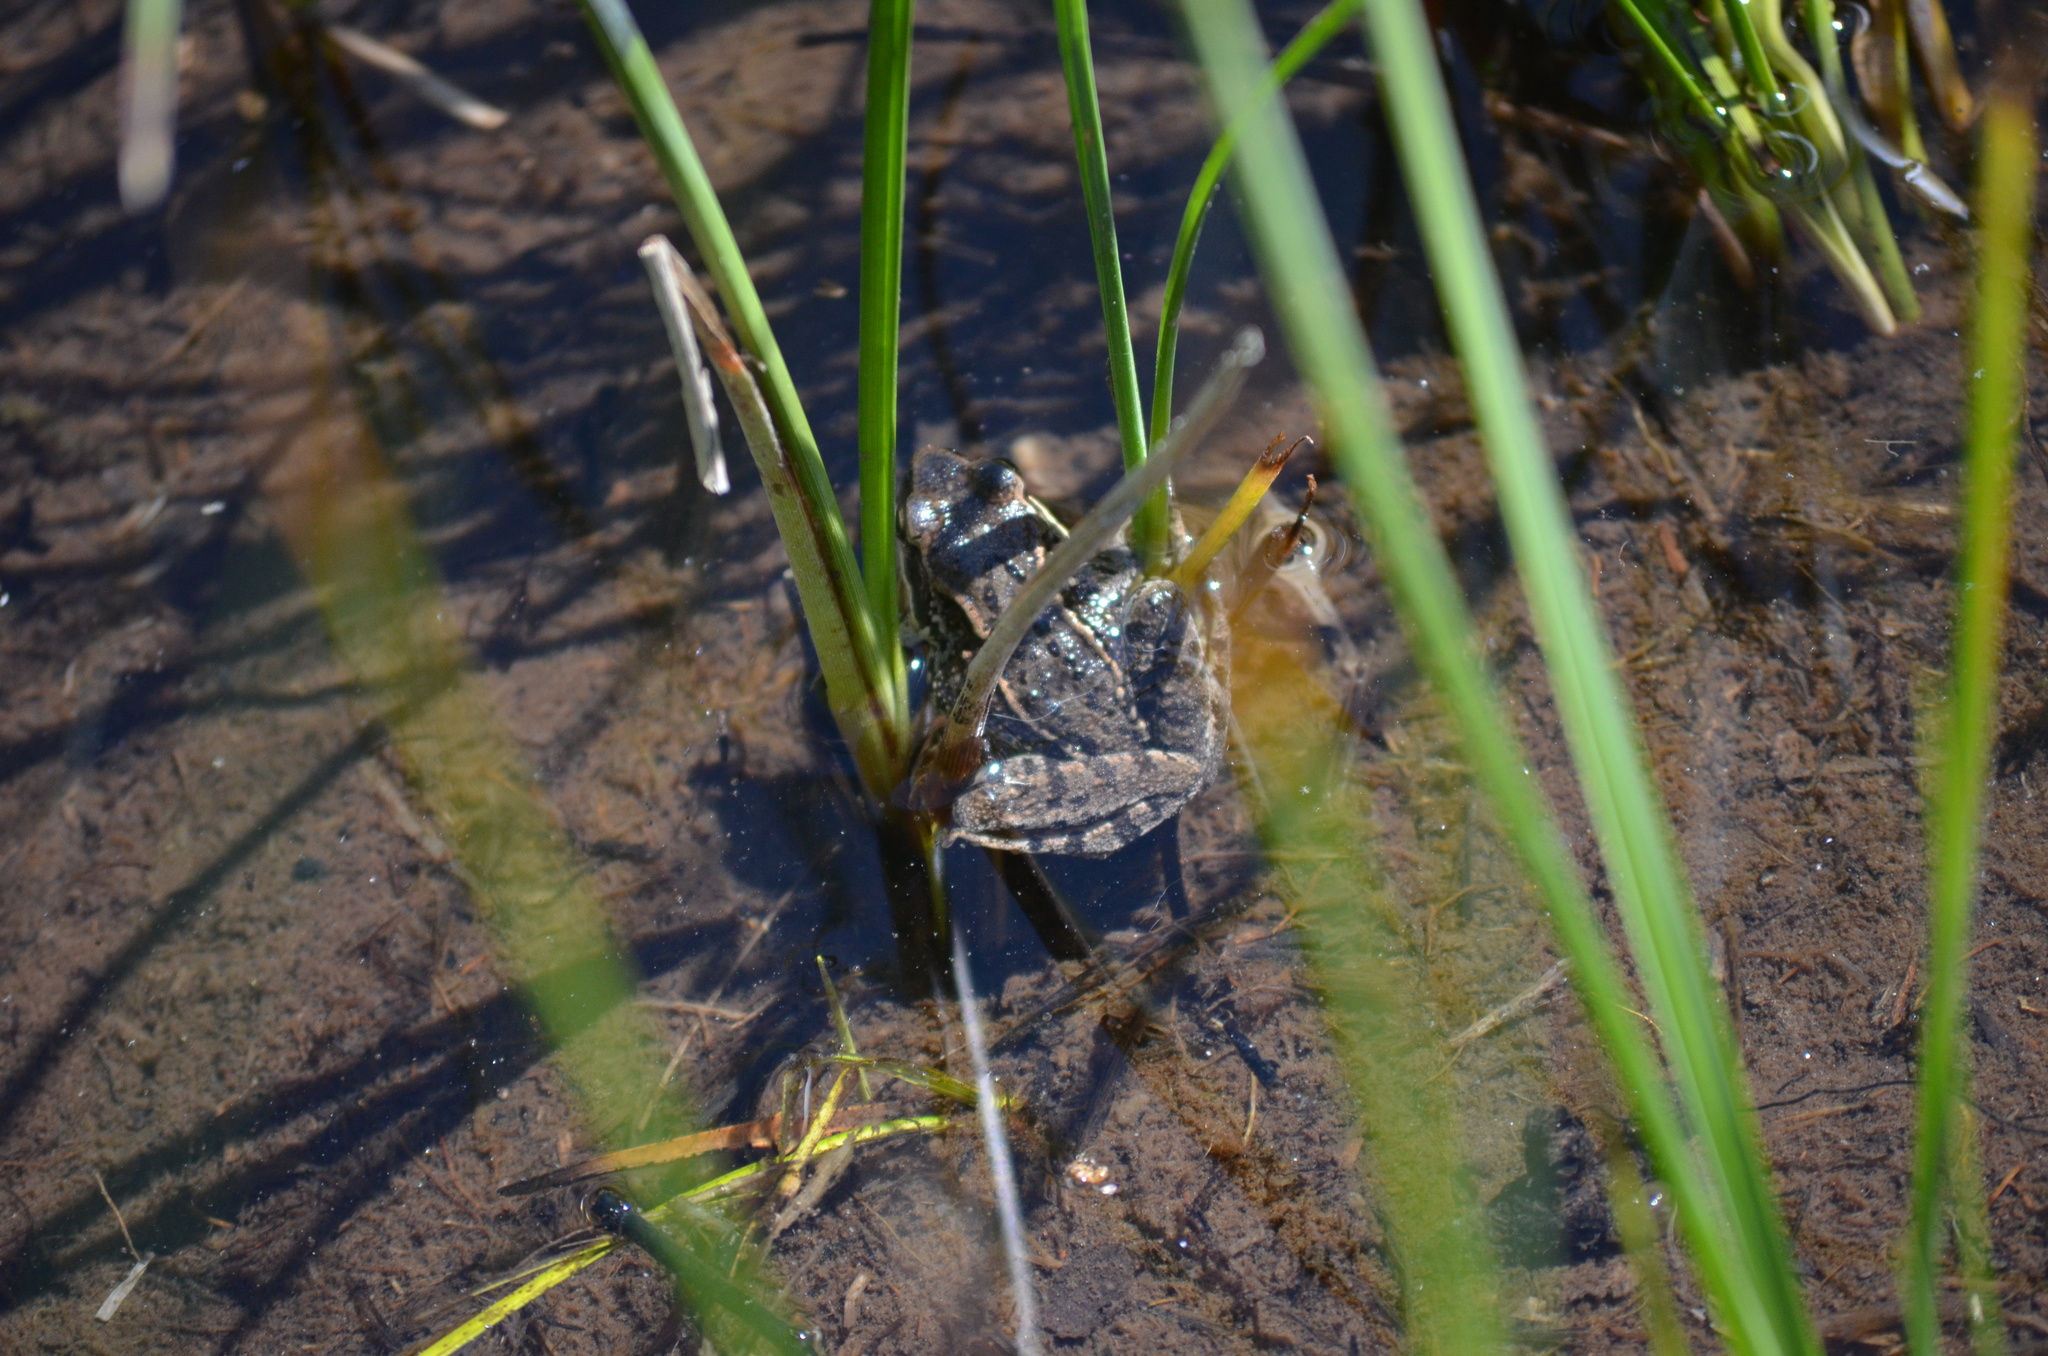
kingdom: Animalia
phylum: Chordata
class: Amphibia
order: Anura
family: Ranidae
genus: Pelophylax
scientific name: Pelophylax perezi
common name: Perez's frog
